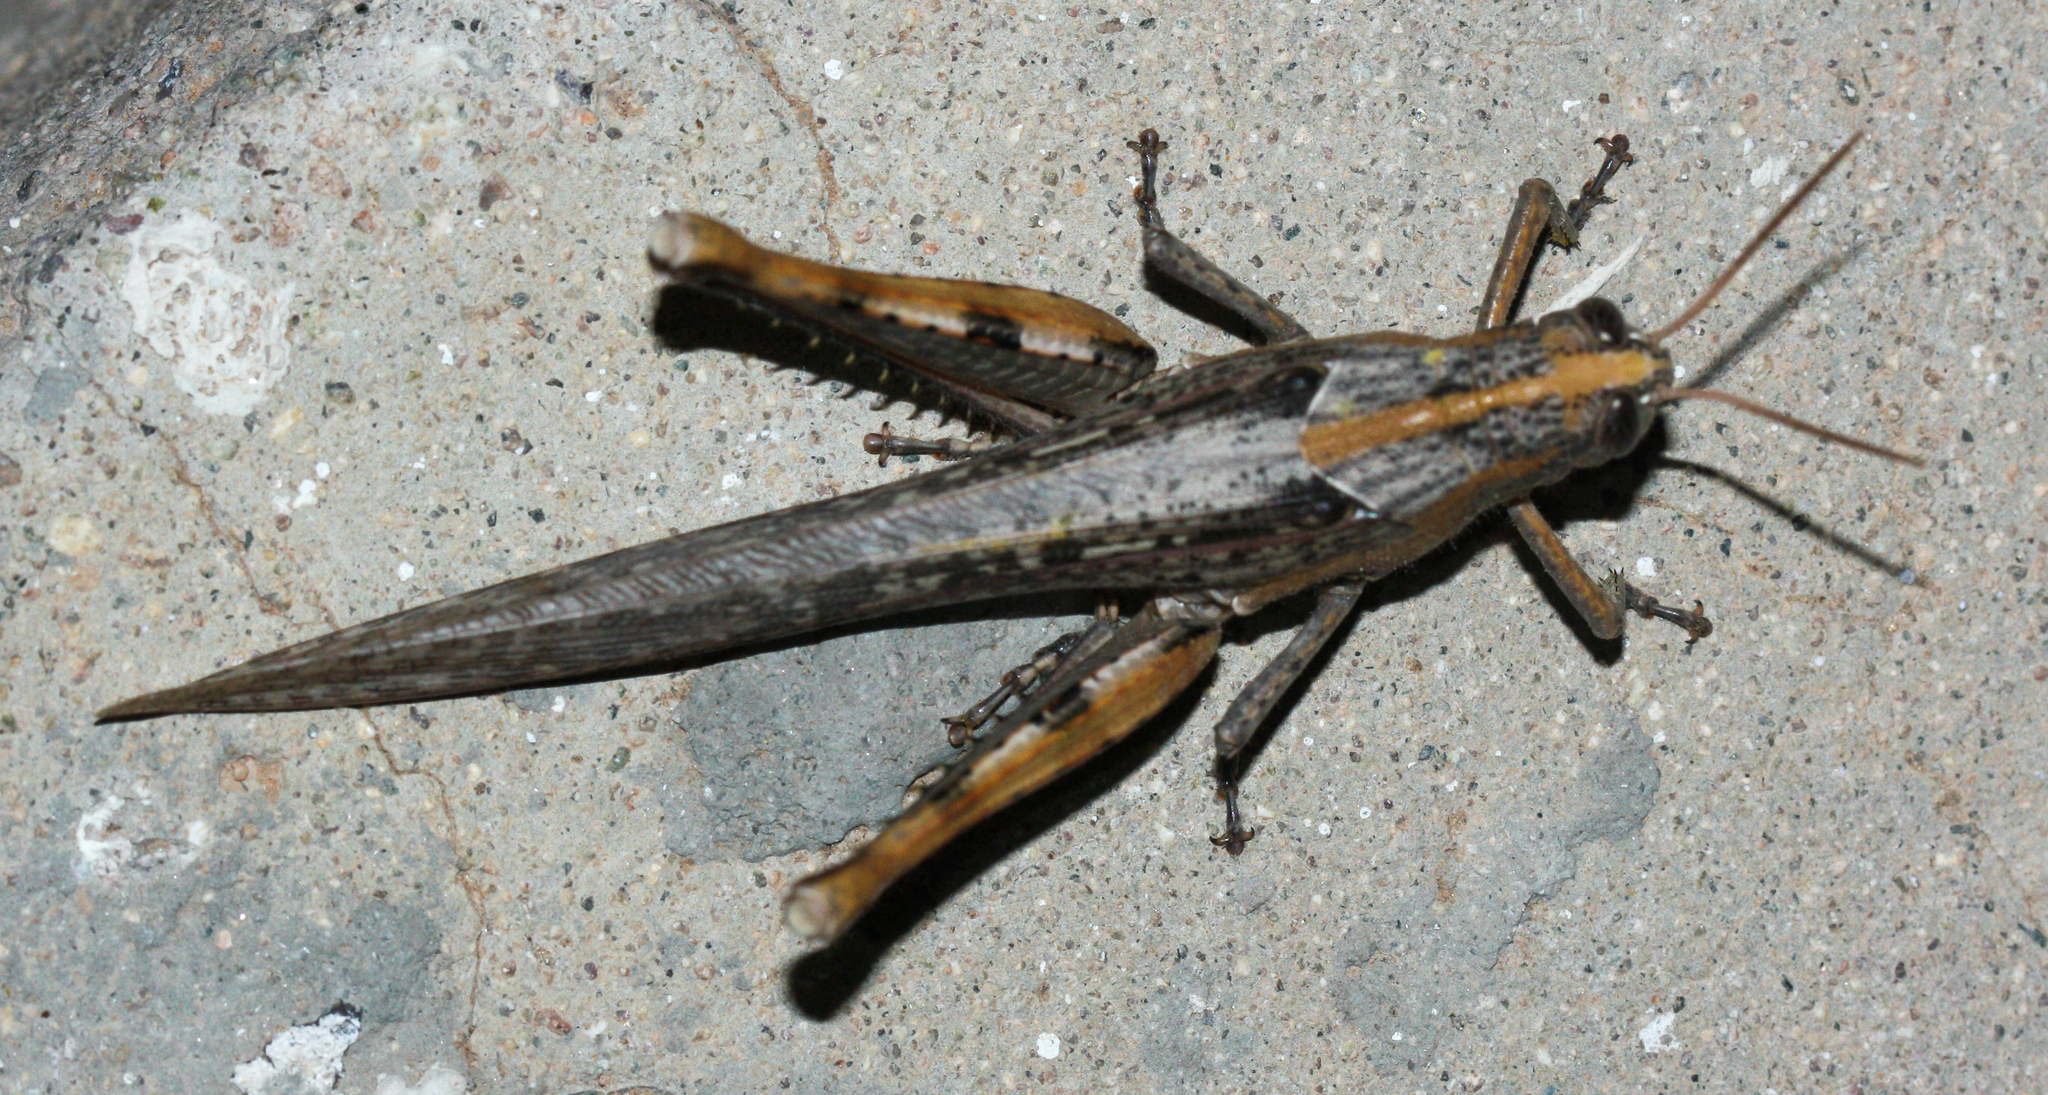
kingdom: Animalia
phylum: Arthropoda
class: Insecta
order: Orthoptera
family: Acrididae
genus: Schistocerca
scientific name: Schistocerca nitens
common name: Vagrant grasshopper
